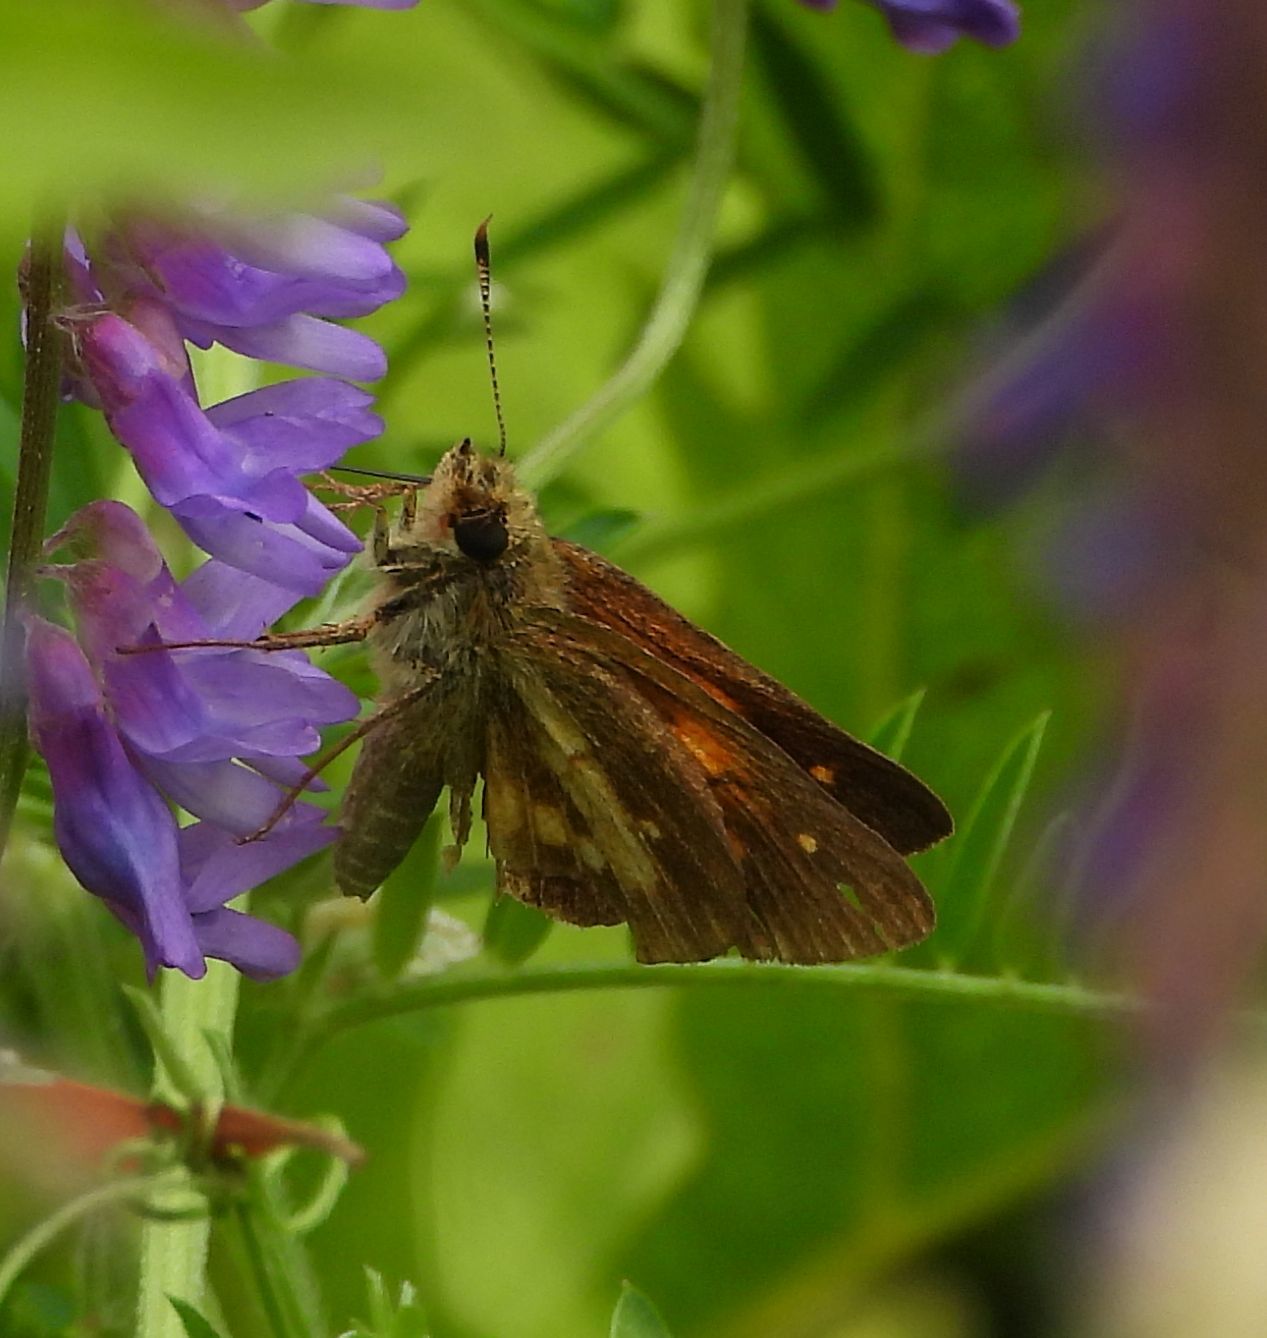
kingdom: Animalia
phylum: Arthropoda
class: Insecta
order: Lepidoptera
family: Hesperiidae
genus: Poanes
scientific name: Poanes viator
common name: Broad-winged skipper
